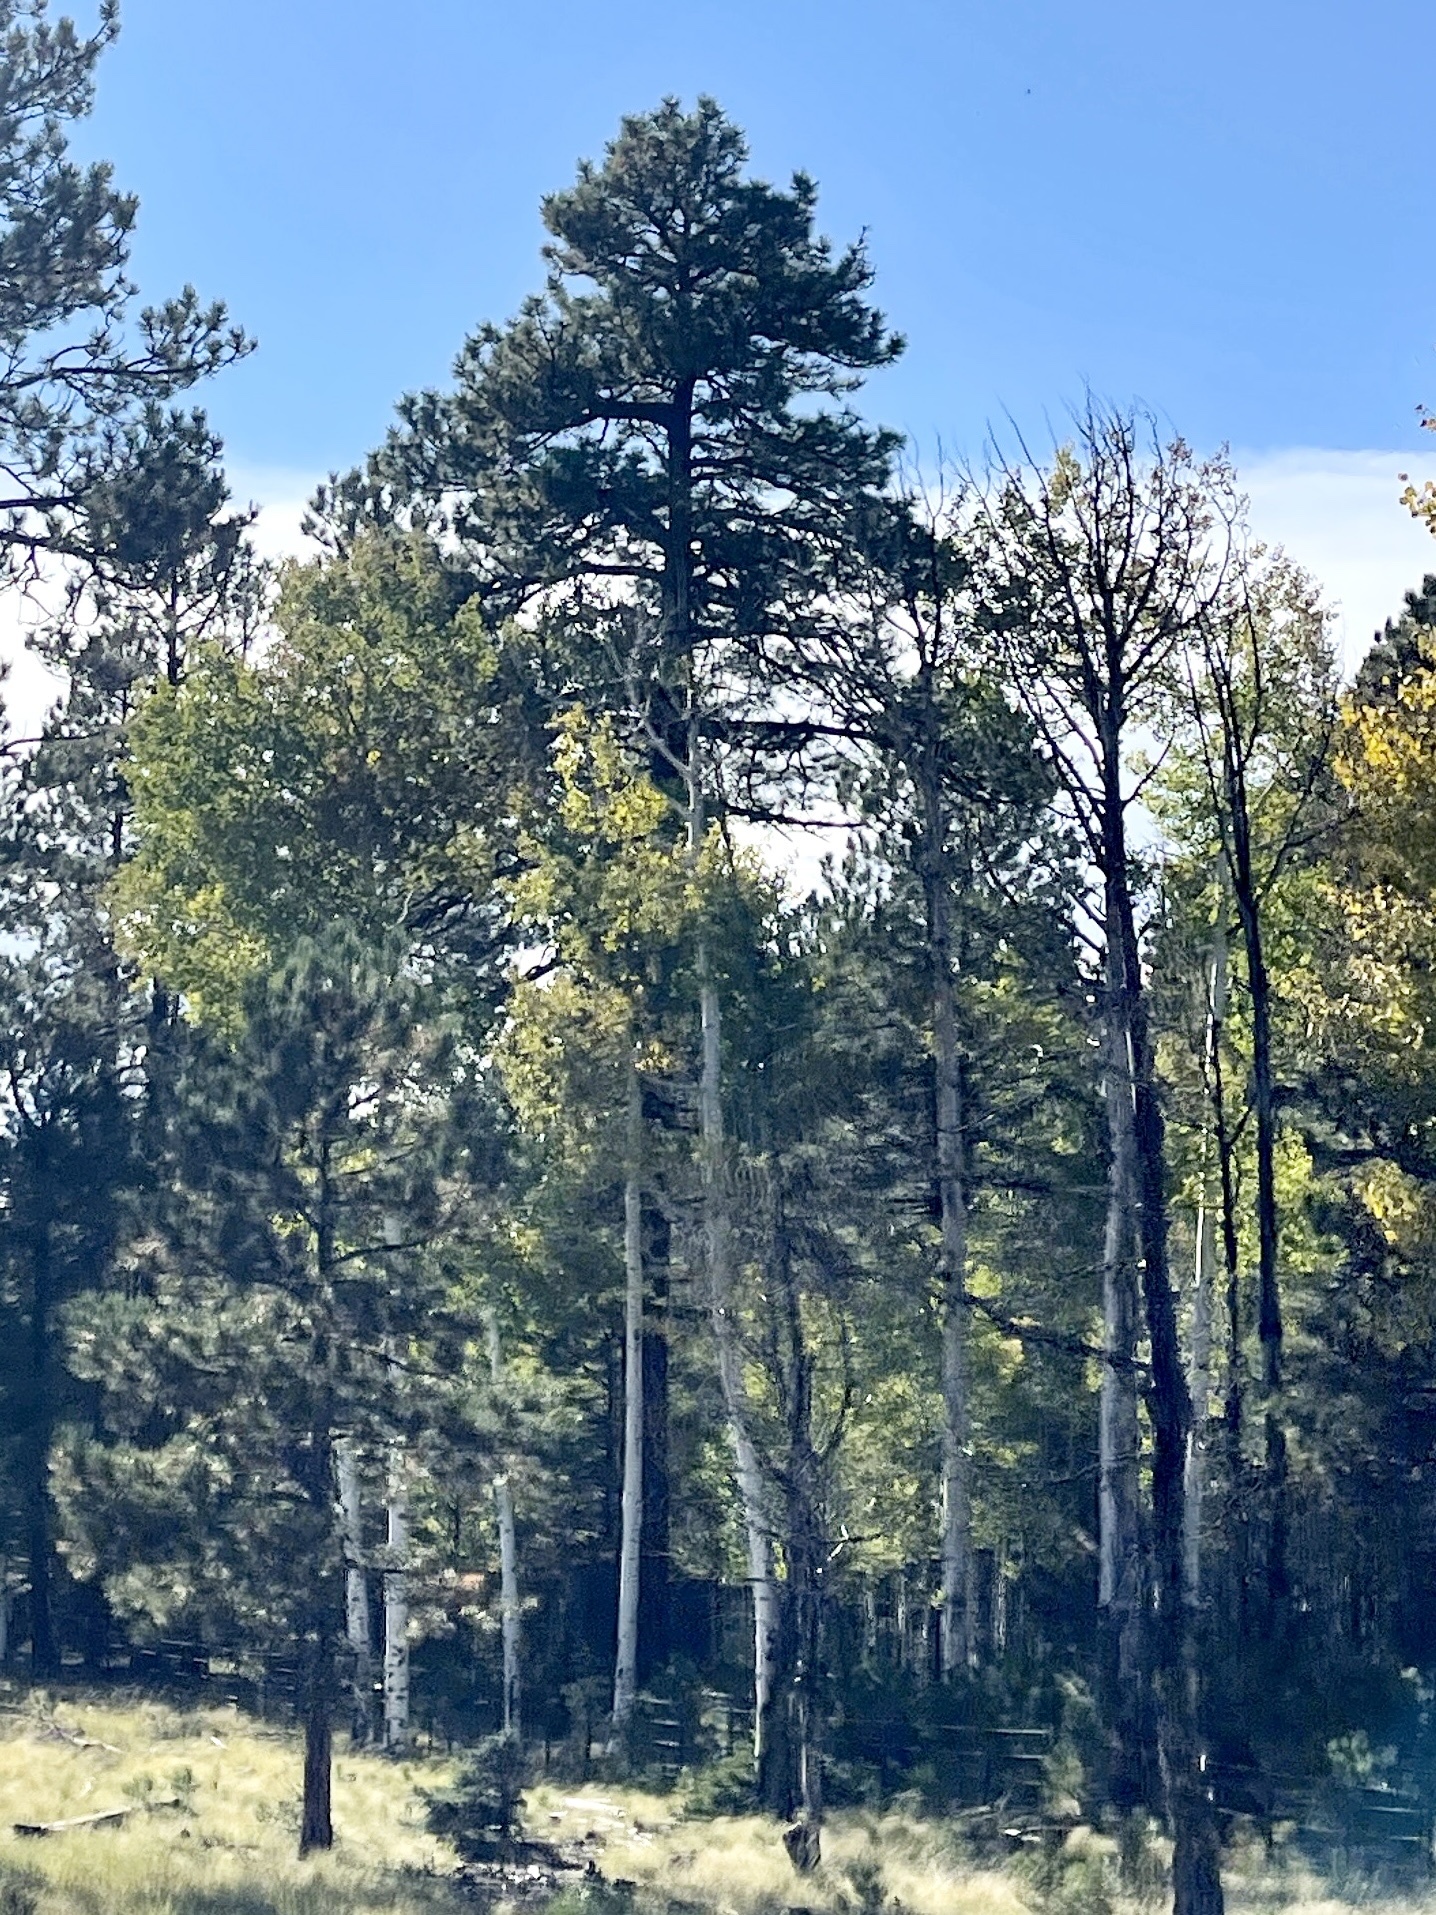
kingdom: Plantae
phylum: Tracheophyta
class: Magnoliopsida
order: Malpighiales
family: Salicaceae
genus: Populus
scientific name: Populus tremuloides
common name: Quaking aspen
